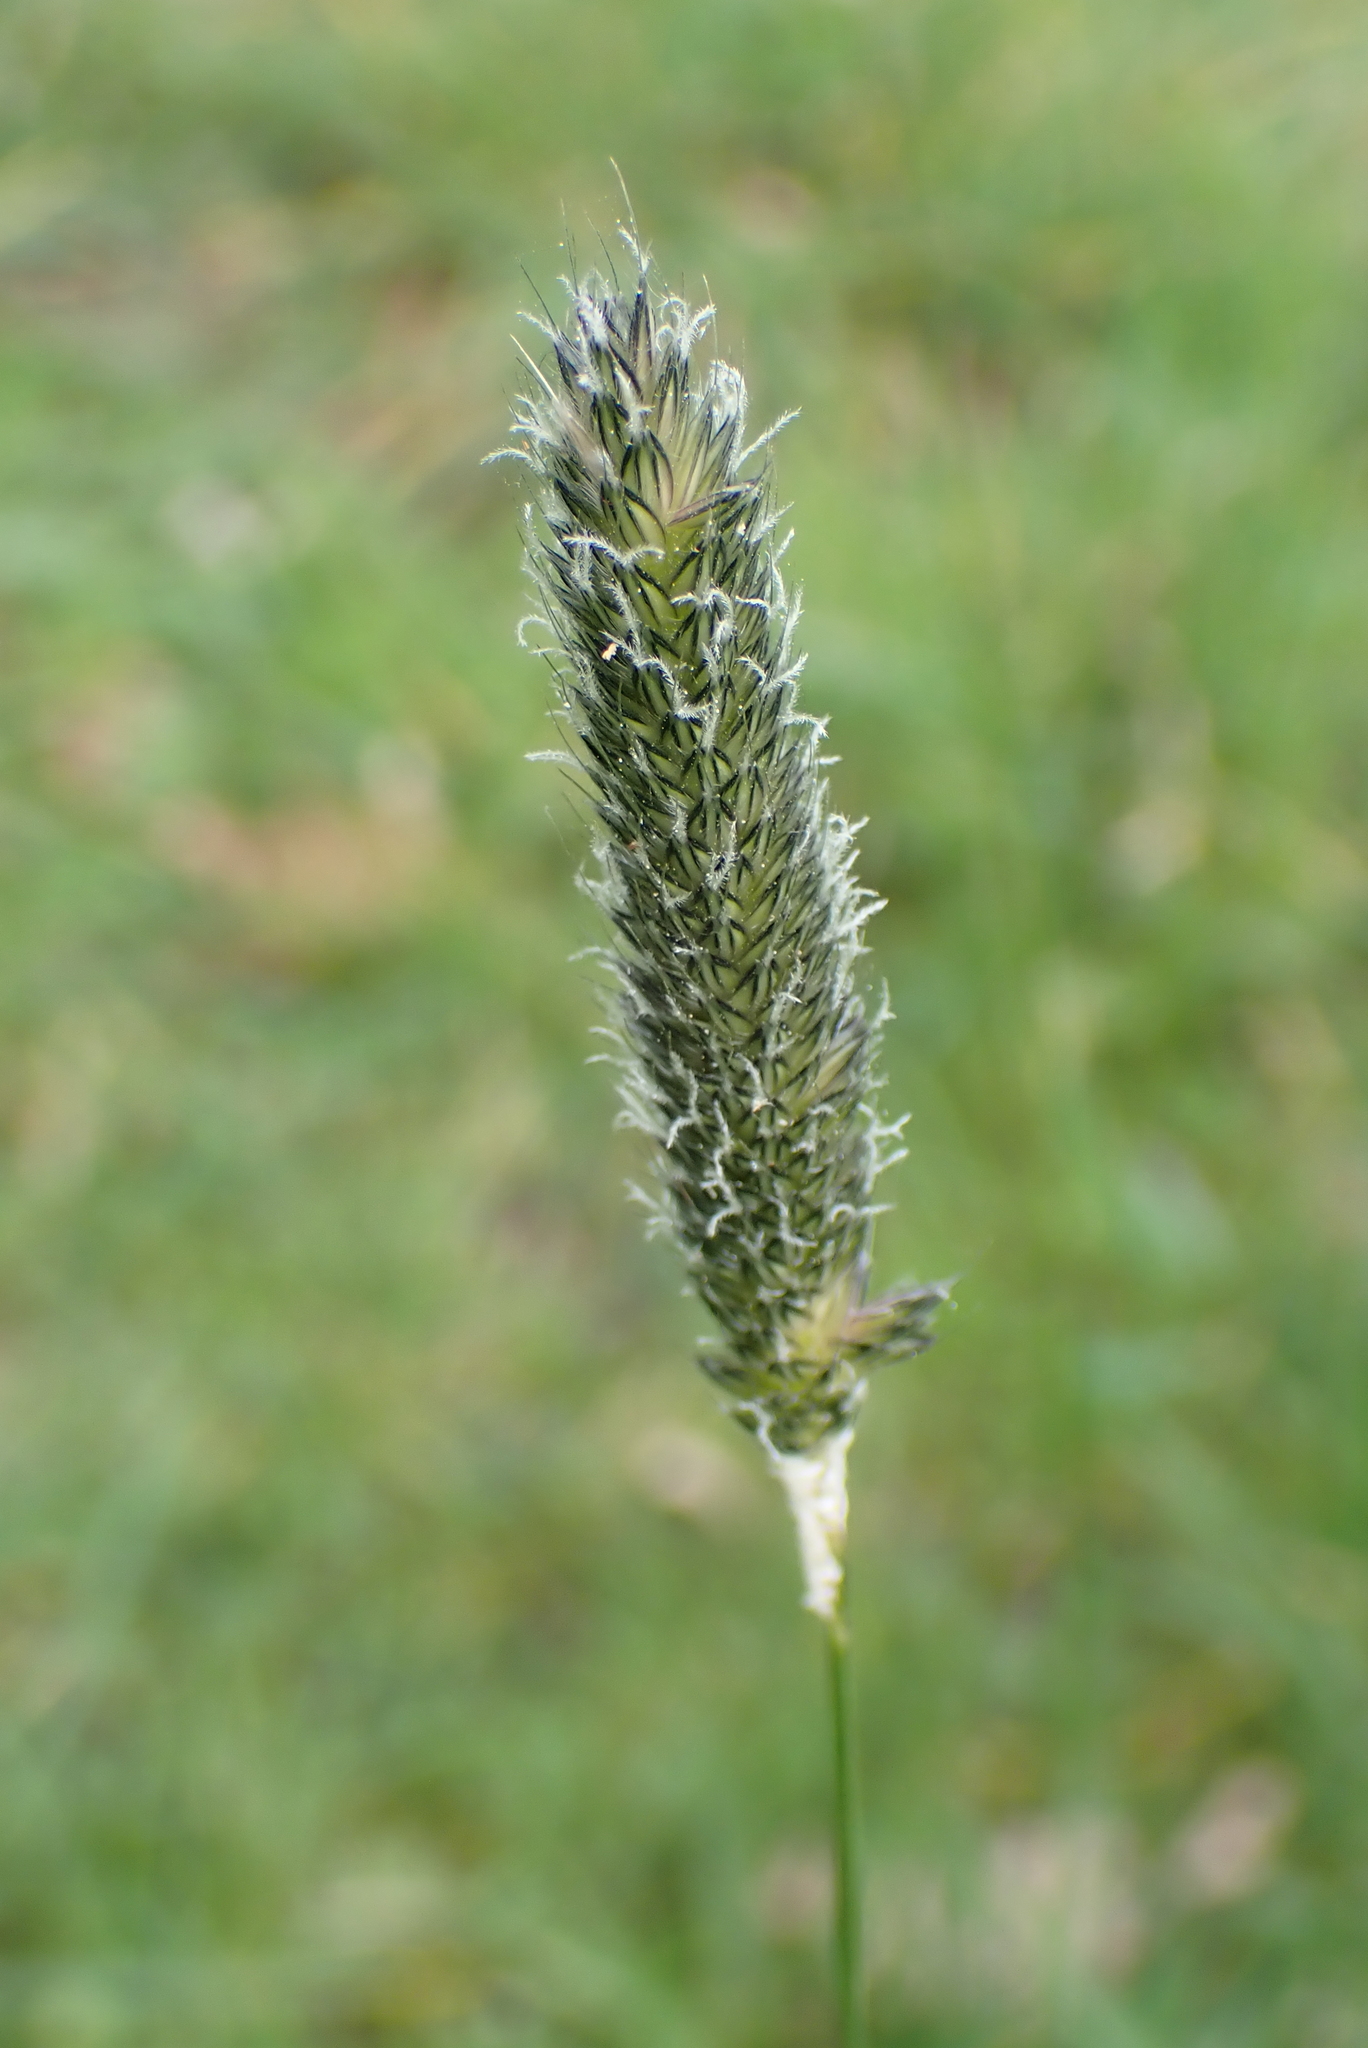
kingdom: Plantae
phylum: Tracheophyta
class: Liliopsida
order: Poales
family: Poaceae
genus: Alopecurus
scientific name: Alopecurus pratensis
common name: Meadow foxtail
